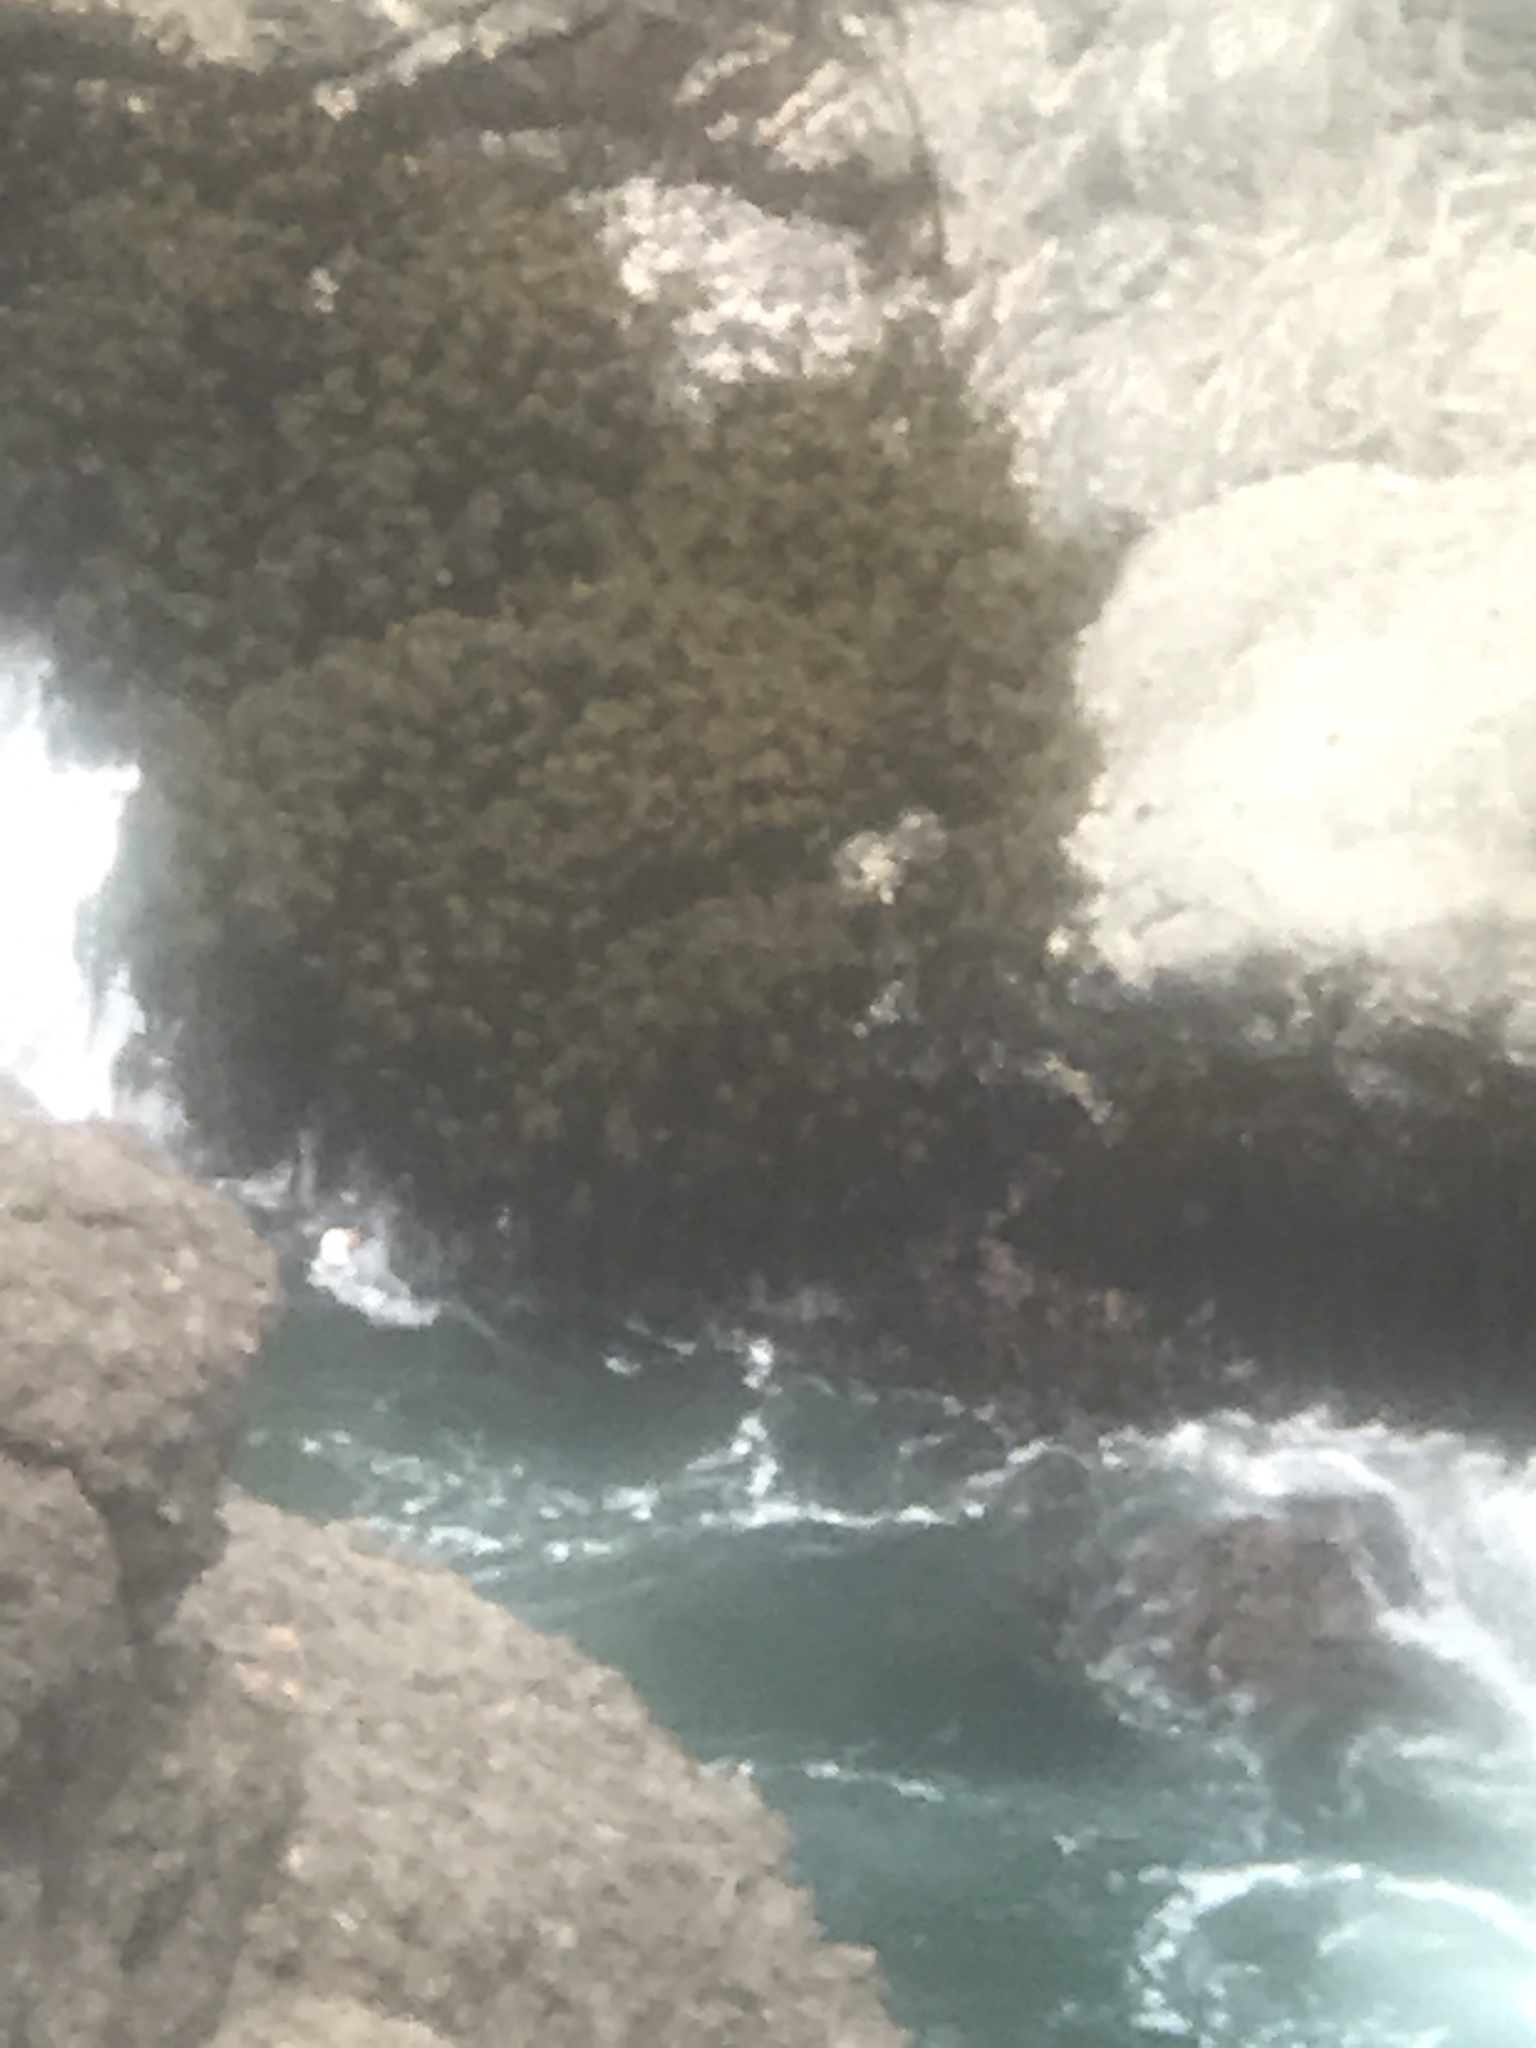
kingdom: Chromista
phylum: Ochrophyta
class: Phaeophyceae
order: Laminariales
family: Laminariaceae
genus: Postelsia
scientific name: Postelsia palmiformis
